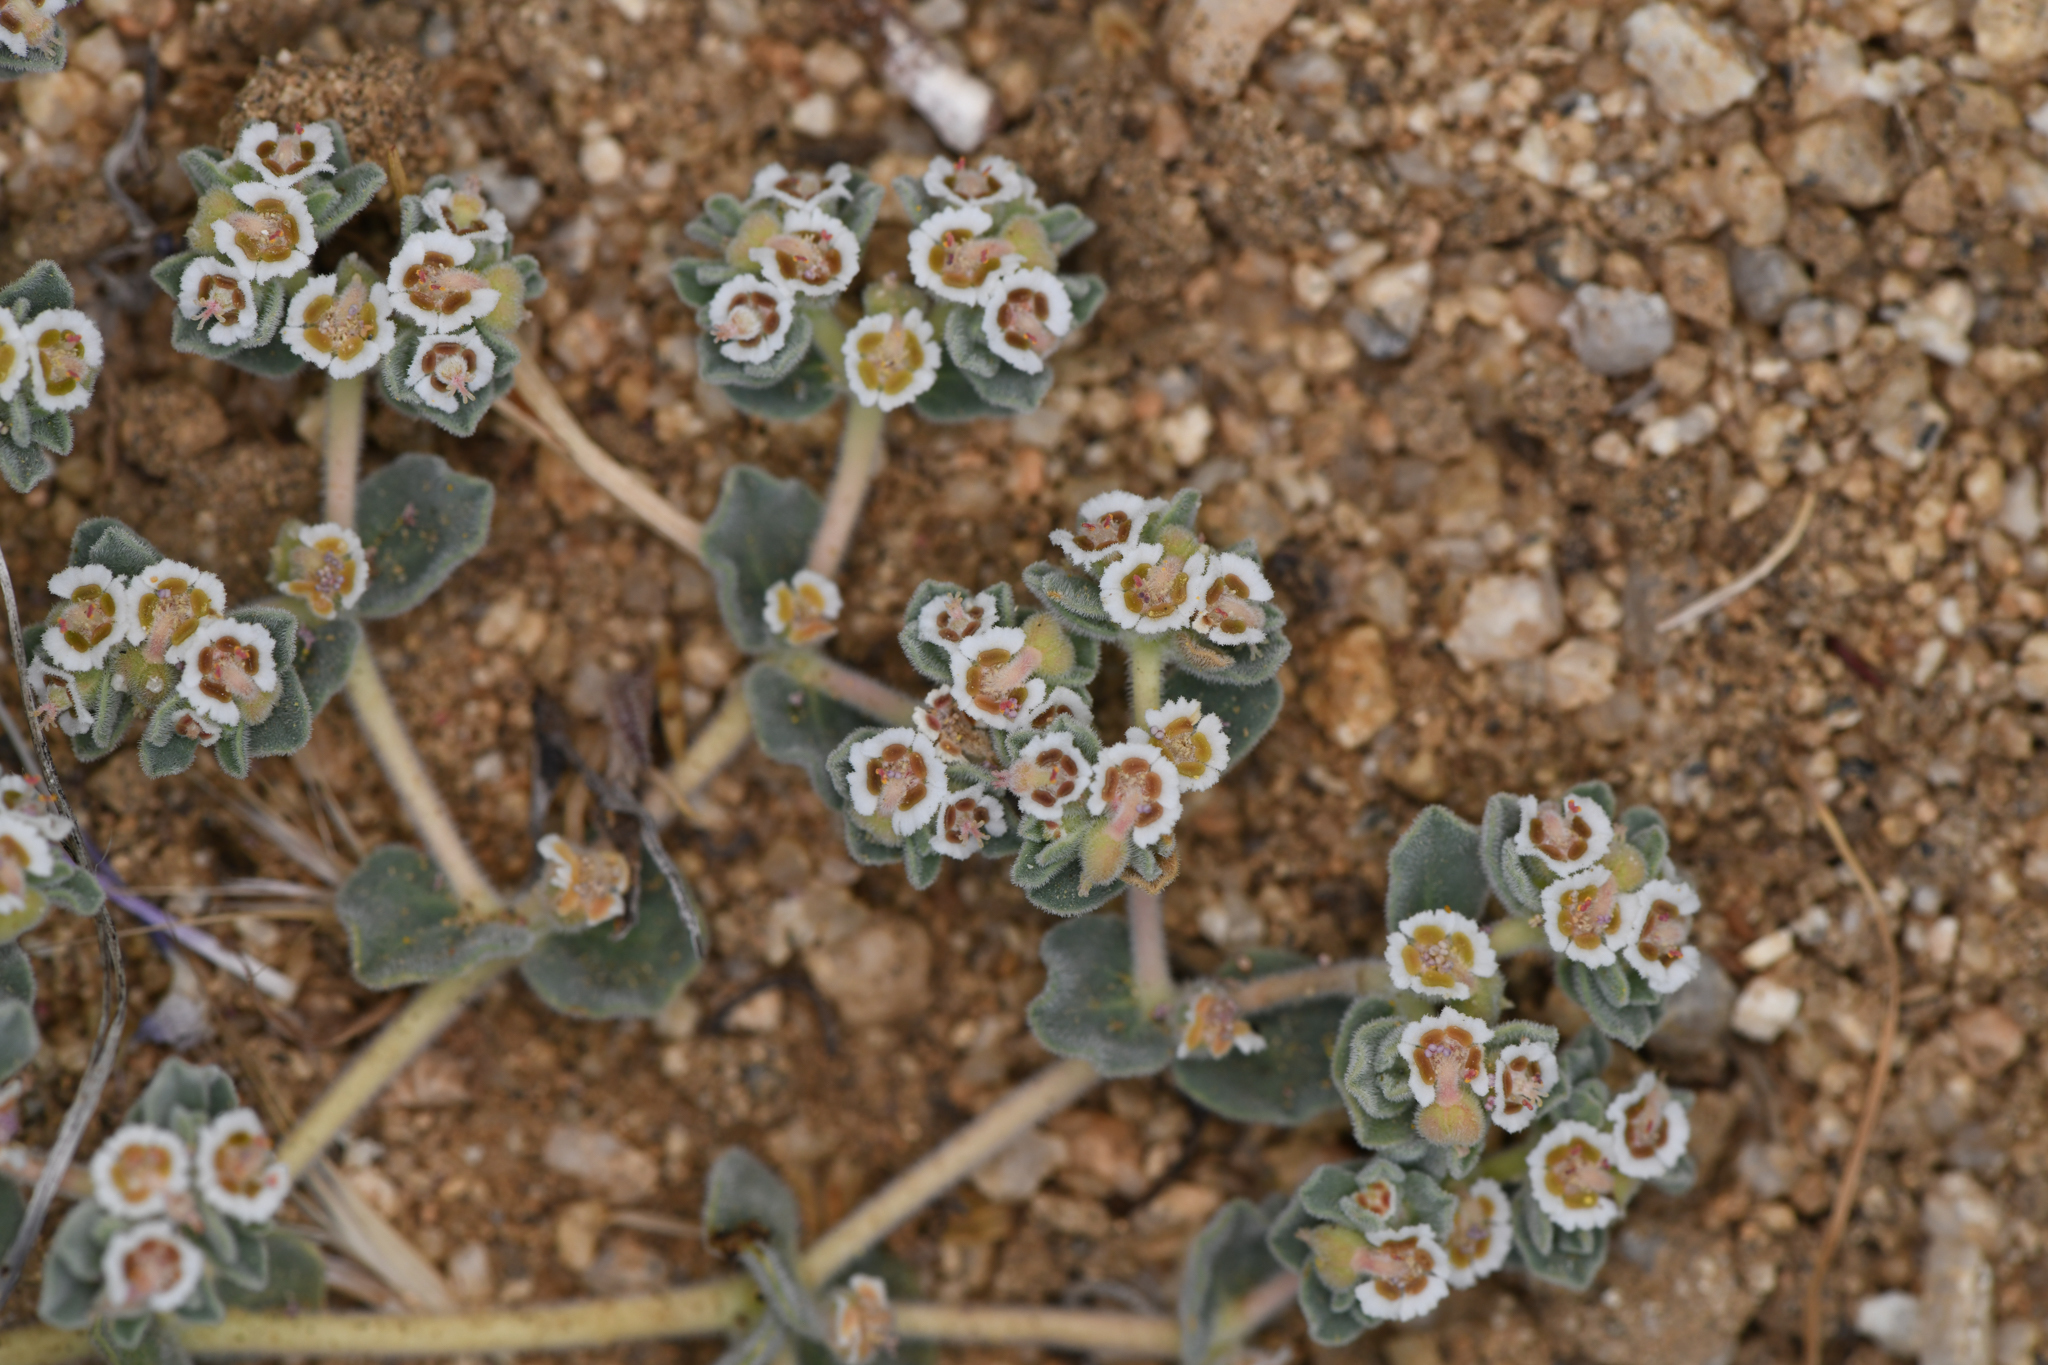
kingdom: Plantae
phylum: Tracheophyta
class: Magnoliopsida
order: Malpighiales
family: Euphorbiaceae
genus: Euphorbia
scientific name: Euphorbia vallis-mortae
